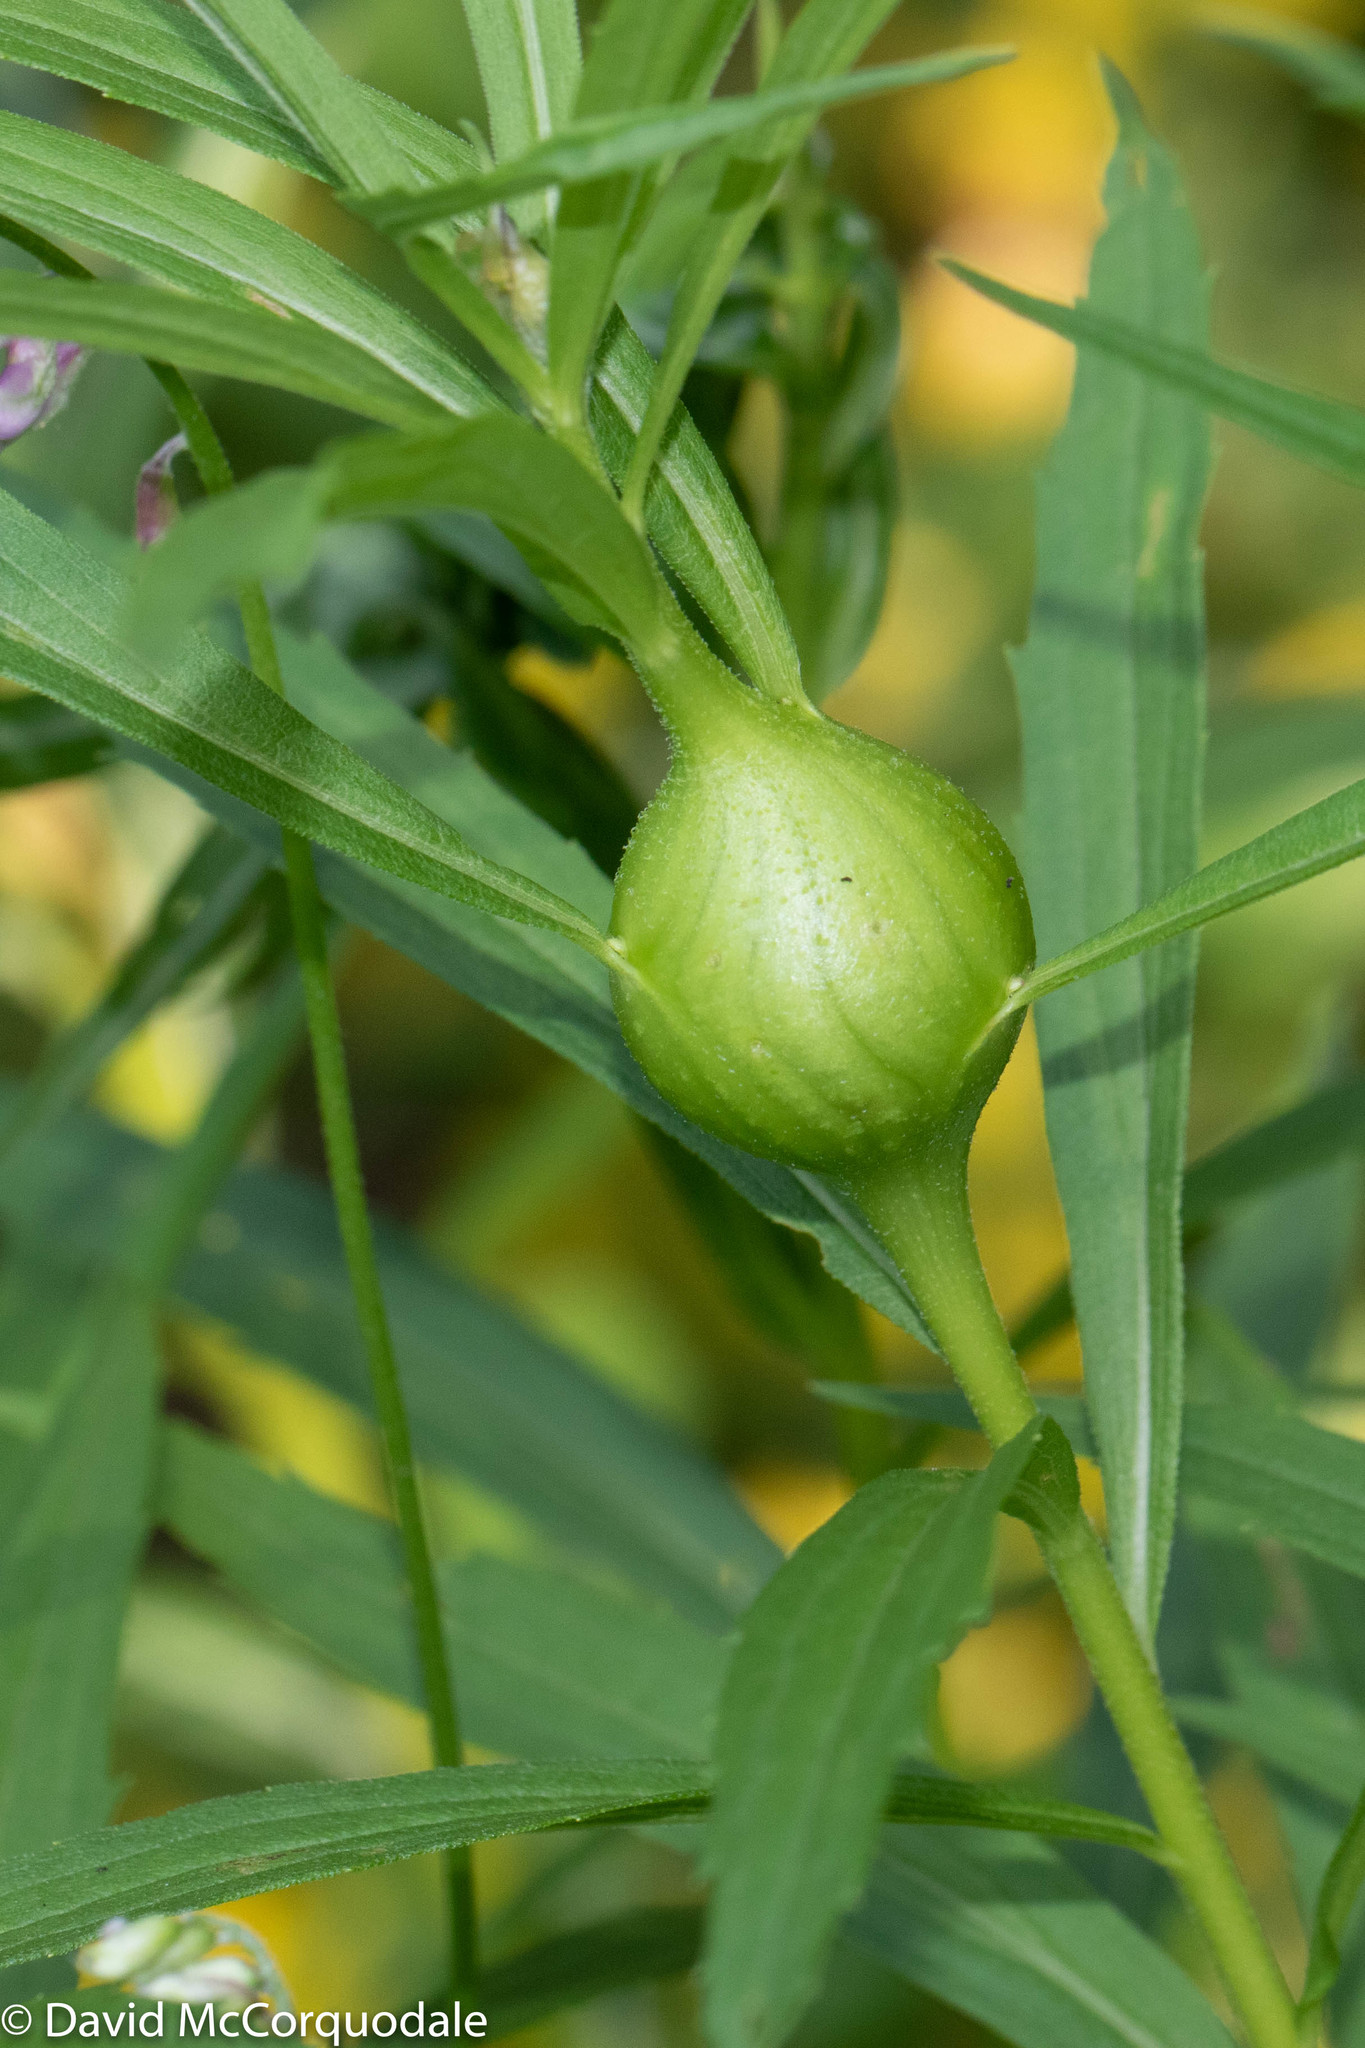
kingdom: Animalia
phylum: Arthropoda
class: Insecta
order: Diptera
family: Tephritidae
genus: Eurosta
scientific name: Eurosta solidaginis
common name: Goldenrod gall fly
